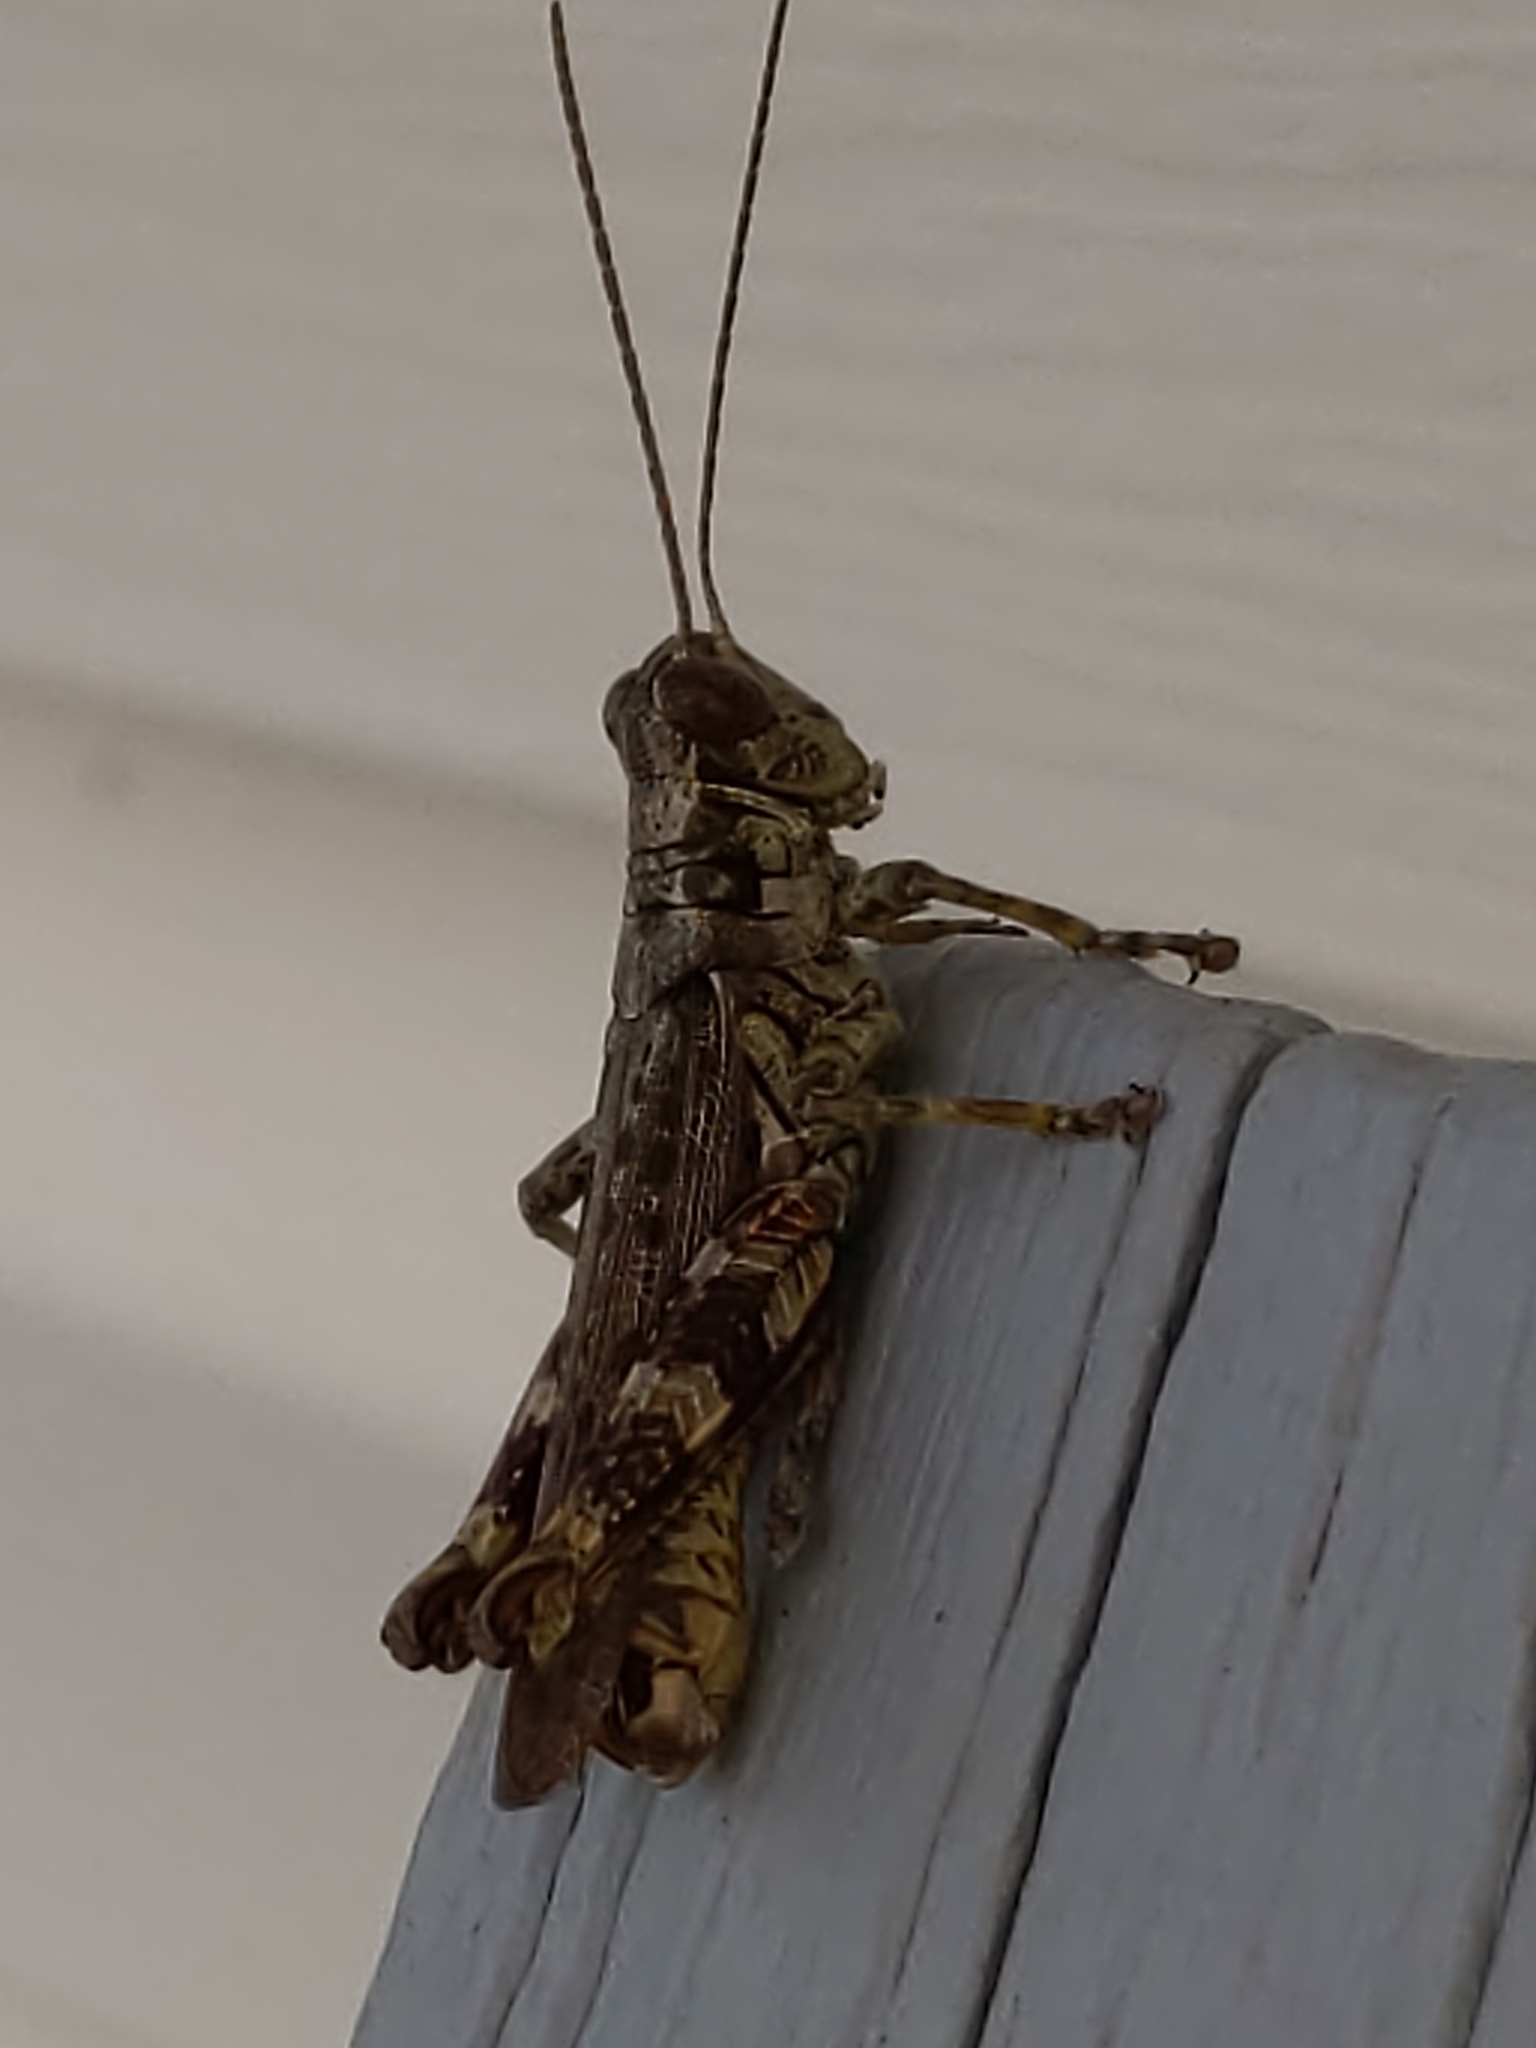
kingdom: Animalia
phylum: Arthropoda
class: Insecta
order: Orthoptera
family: Acrididae
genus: Melanoplus
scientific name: Melanoplus punctulatus
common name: Pine-tree spur-throat grasshopper
